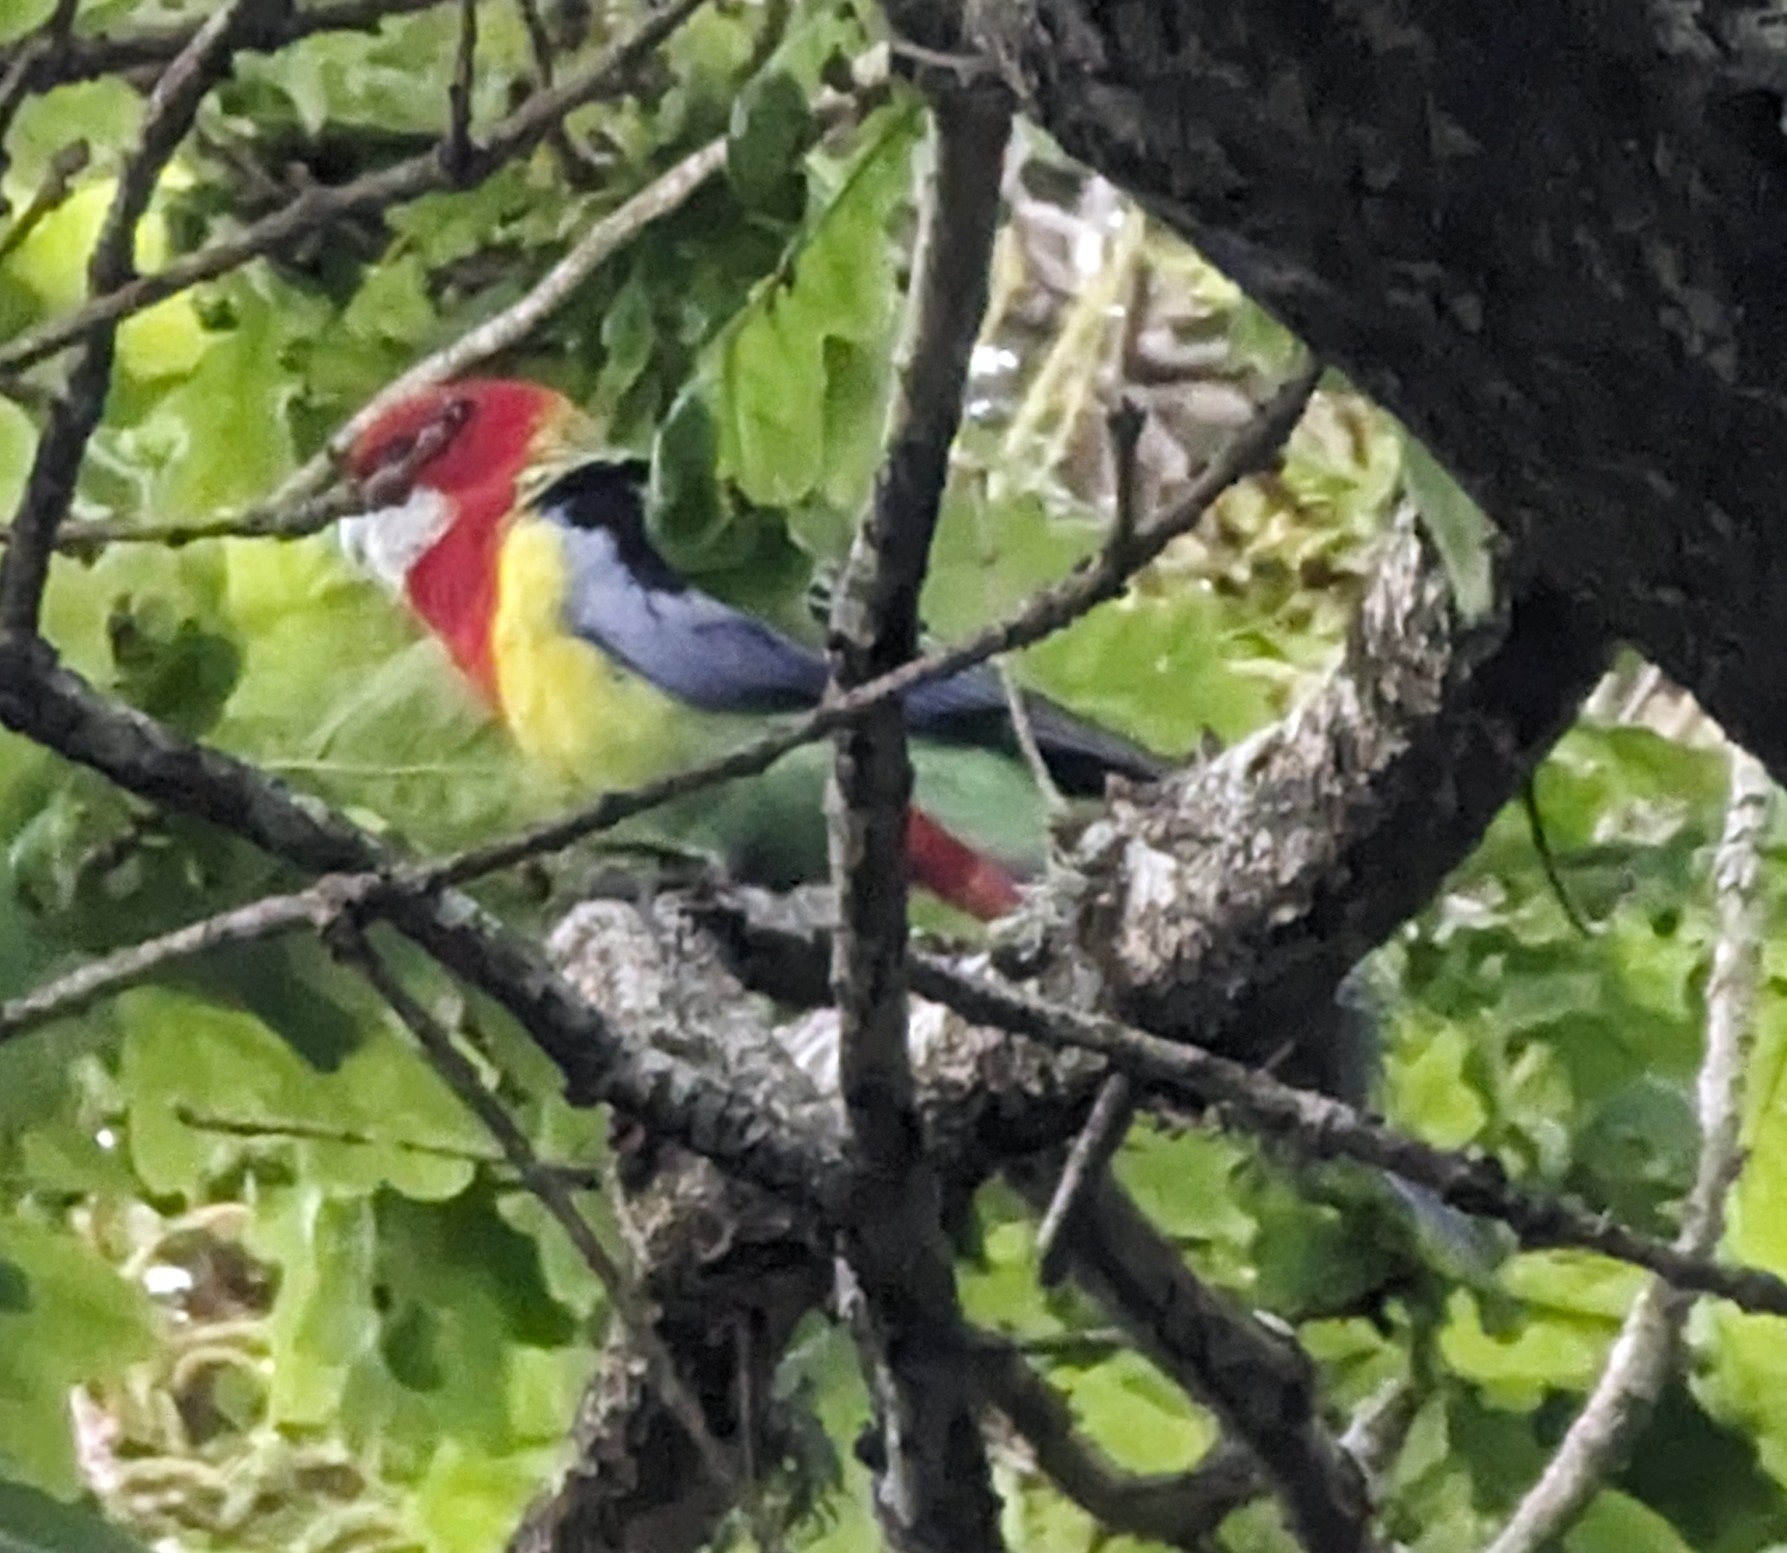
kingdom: Animalia
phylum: Chordata
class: Aves
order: Psittaciformes
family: Psittacidae
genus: Platycercus
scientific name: Platycercus eximius
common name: Eastern rosella
